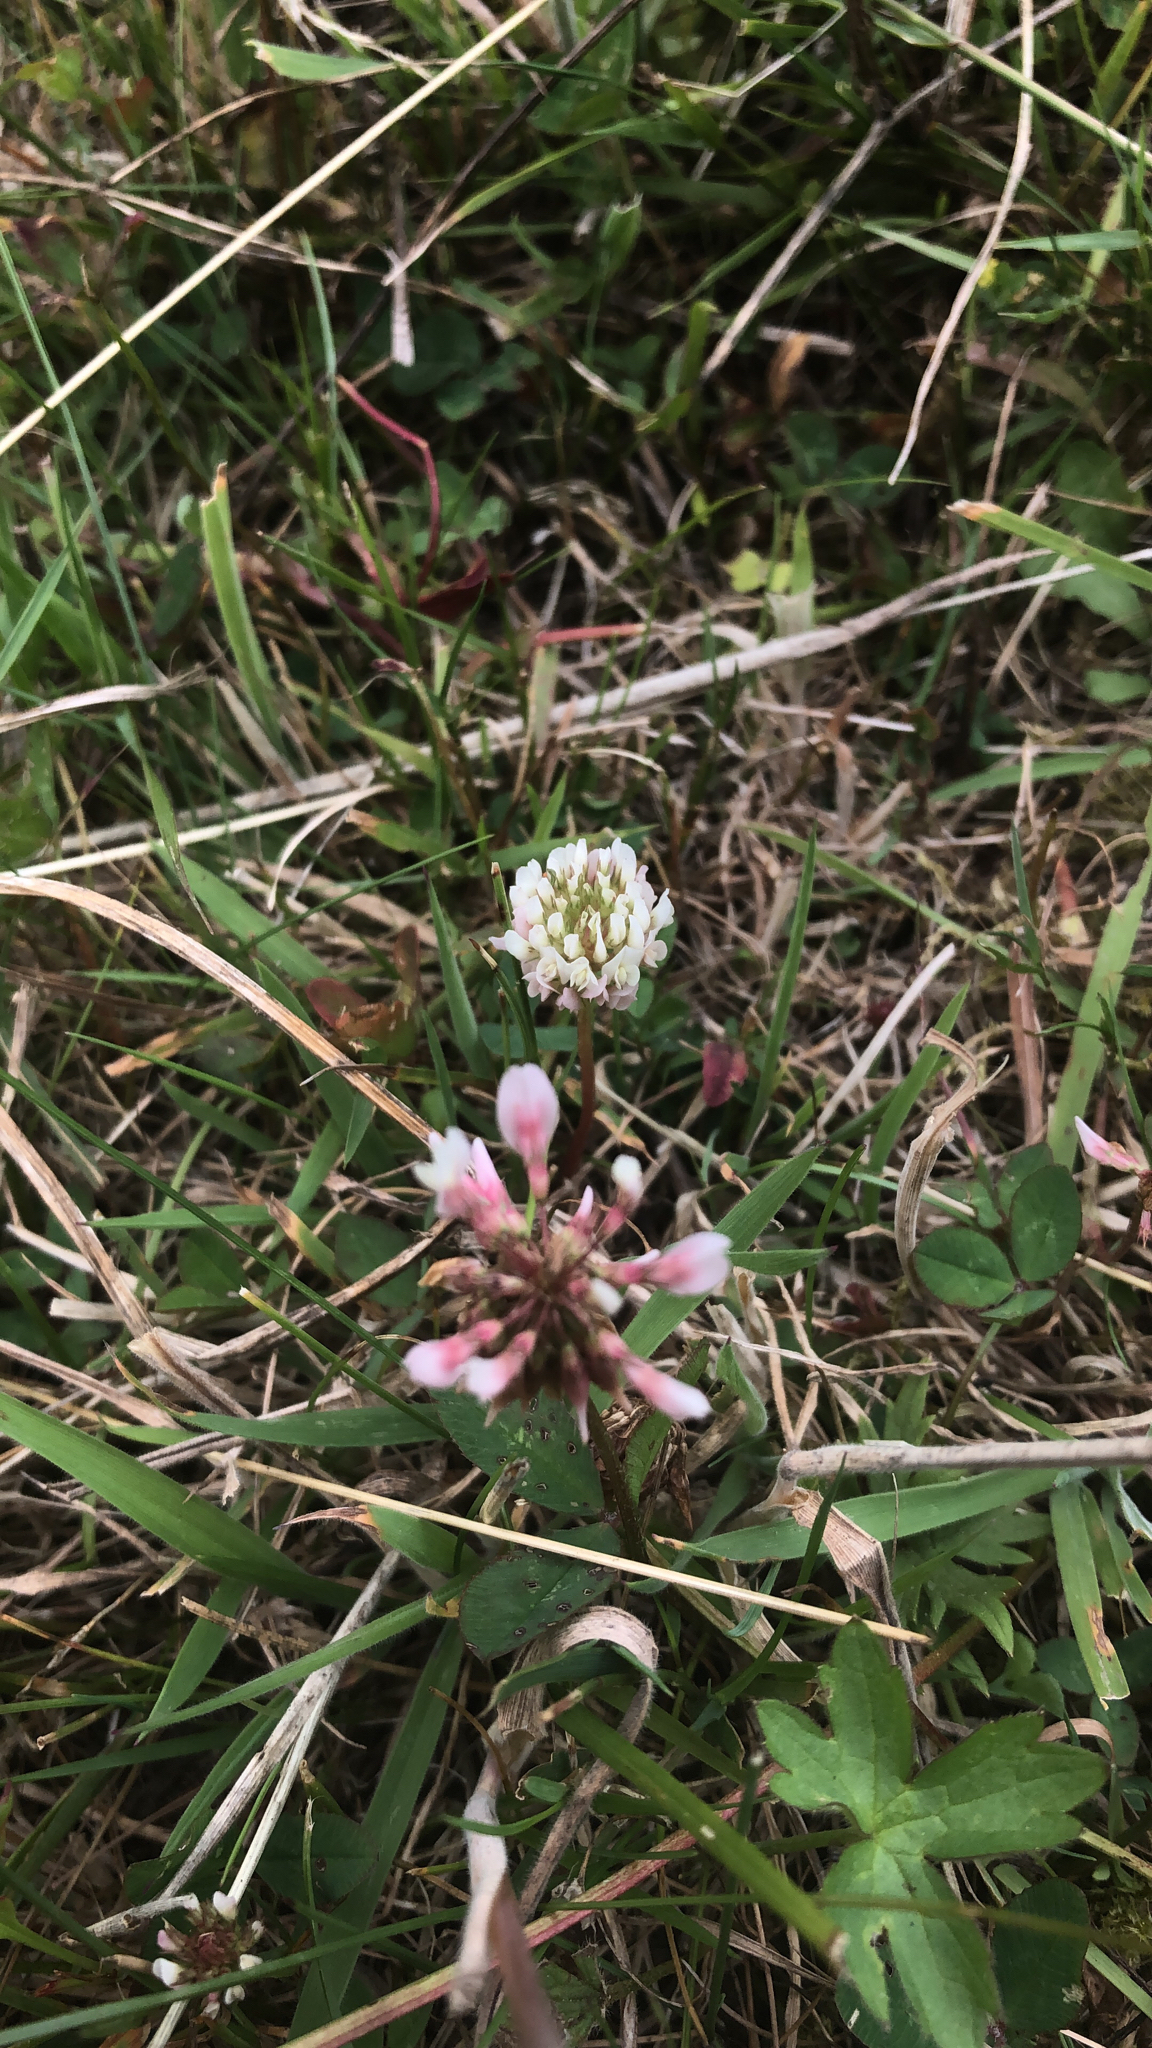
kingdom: Plantae
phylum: Tracheophyta
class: Magnoliopsida
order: Fabales
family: Fabaceae
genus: Trifolium
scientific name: Trifolium repens
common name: White clover
